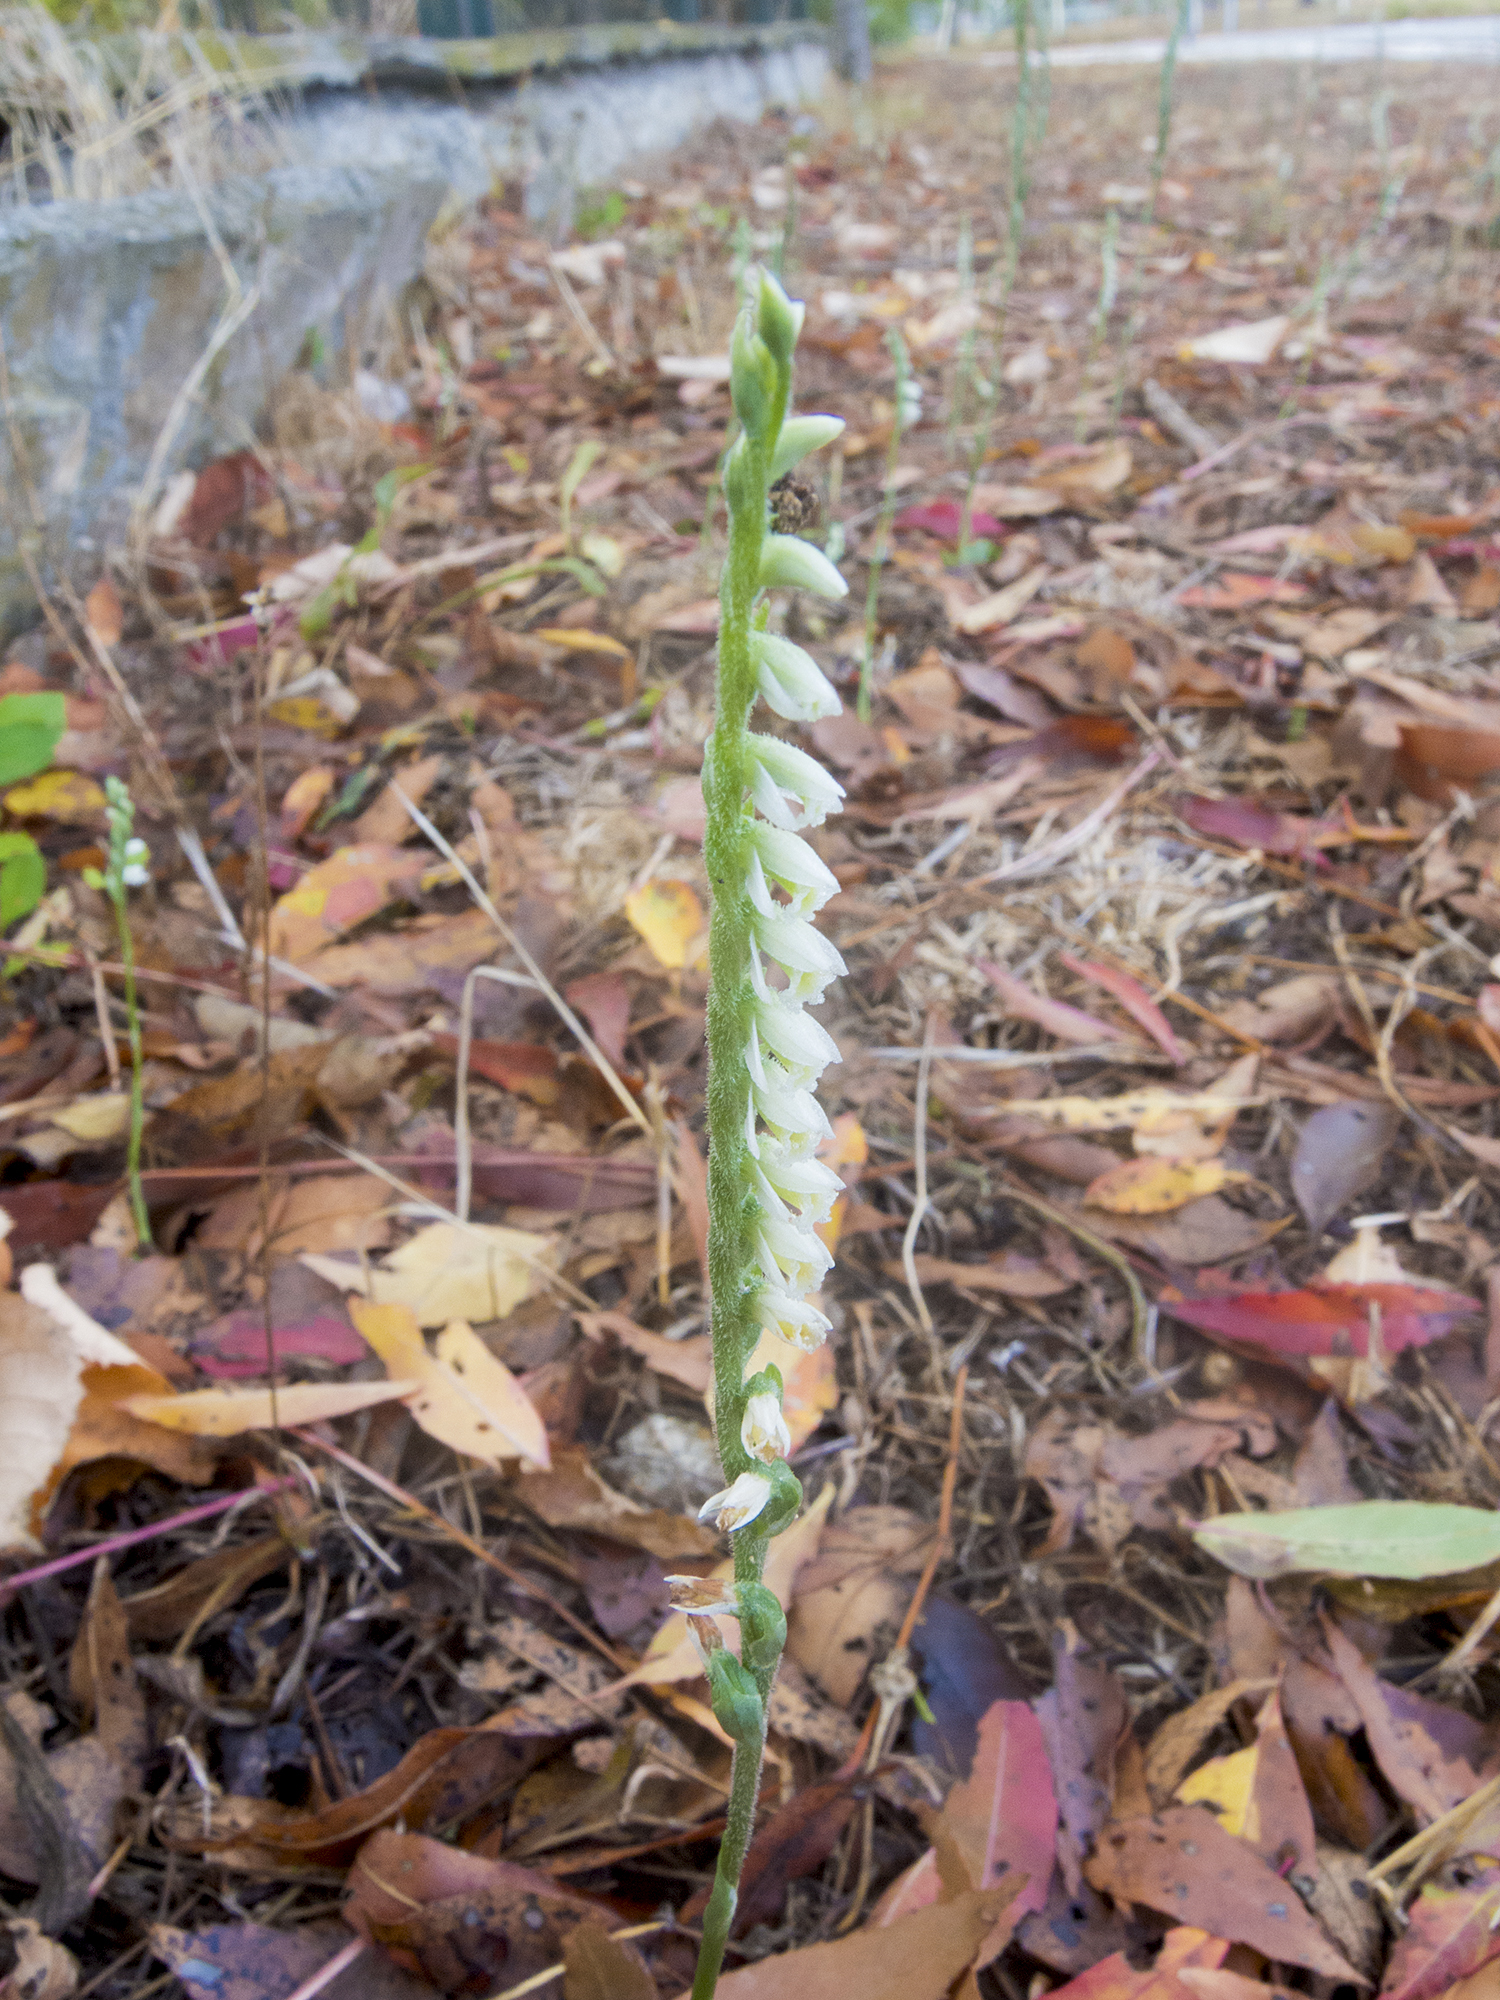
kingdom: Plantae
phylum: Tracheophyta
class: Liliopsida
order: Asparagales
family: Orchidaceae
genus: Spiranthes
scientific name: Spiranthes spiralis
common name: Autumn lady's-tresses
